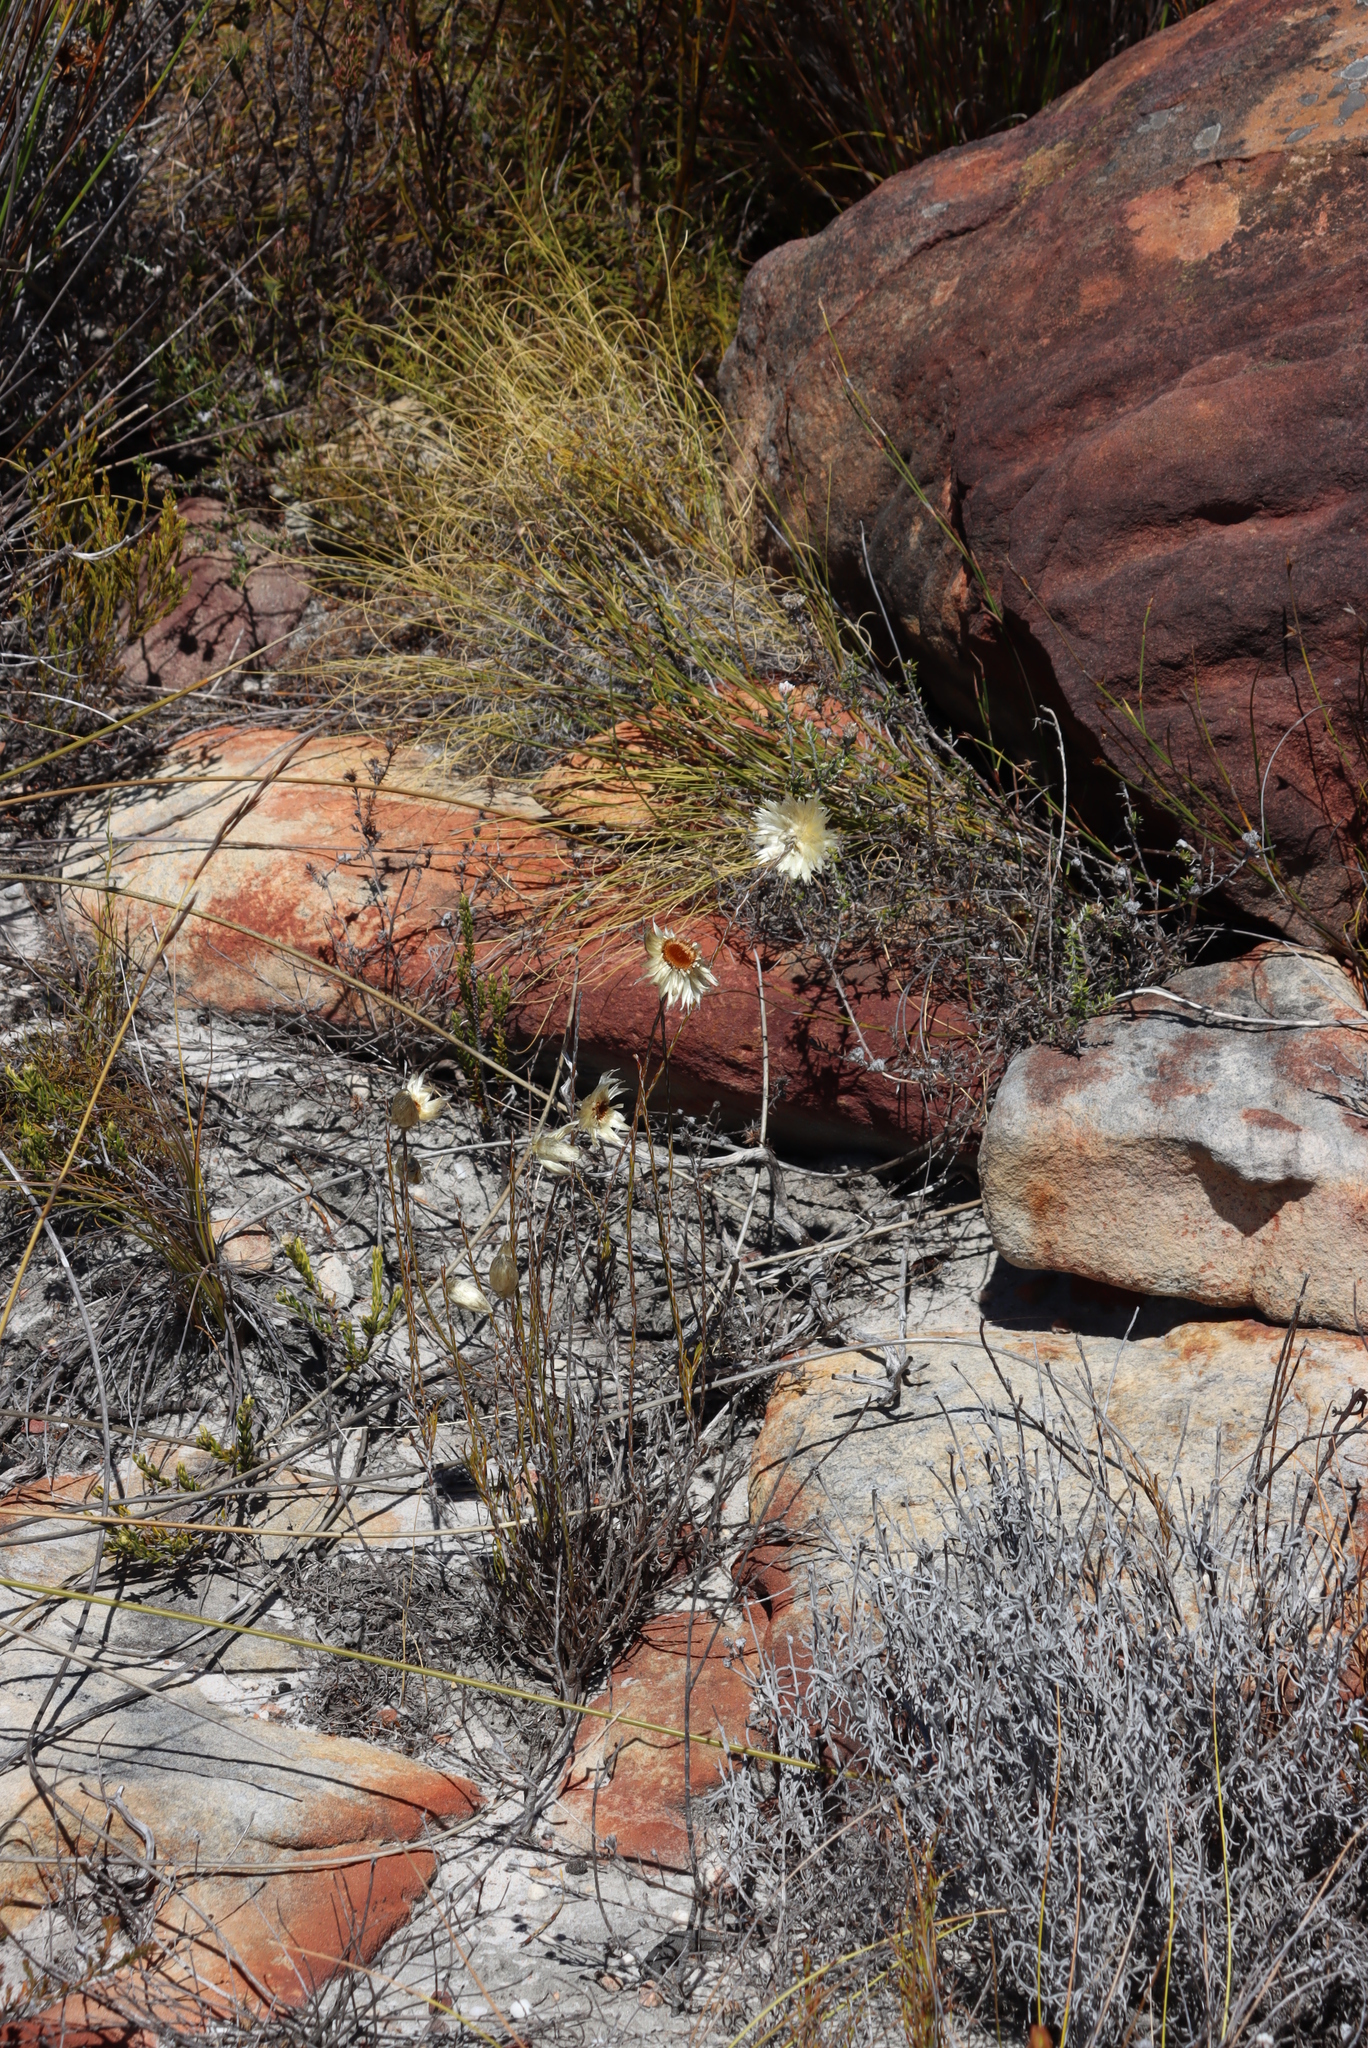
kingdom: Plantae
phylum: Tracheophyta
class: Magnoliopsida
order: Asterales
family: Asteraceae
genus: Edmondia
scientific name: Edmondia sesamoides
